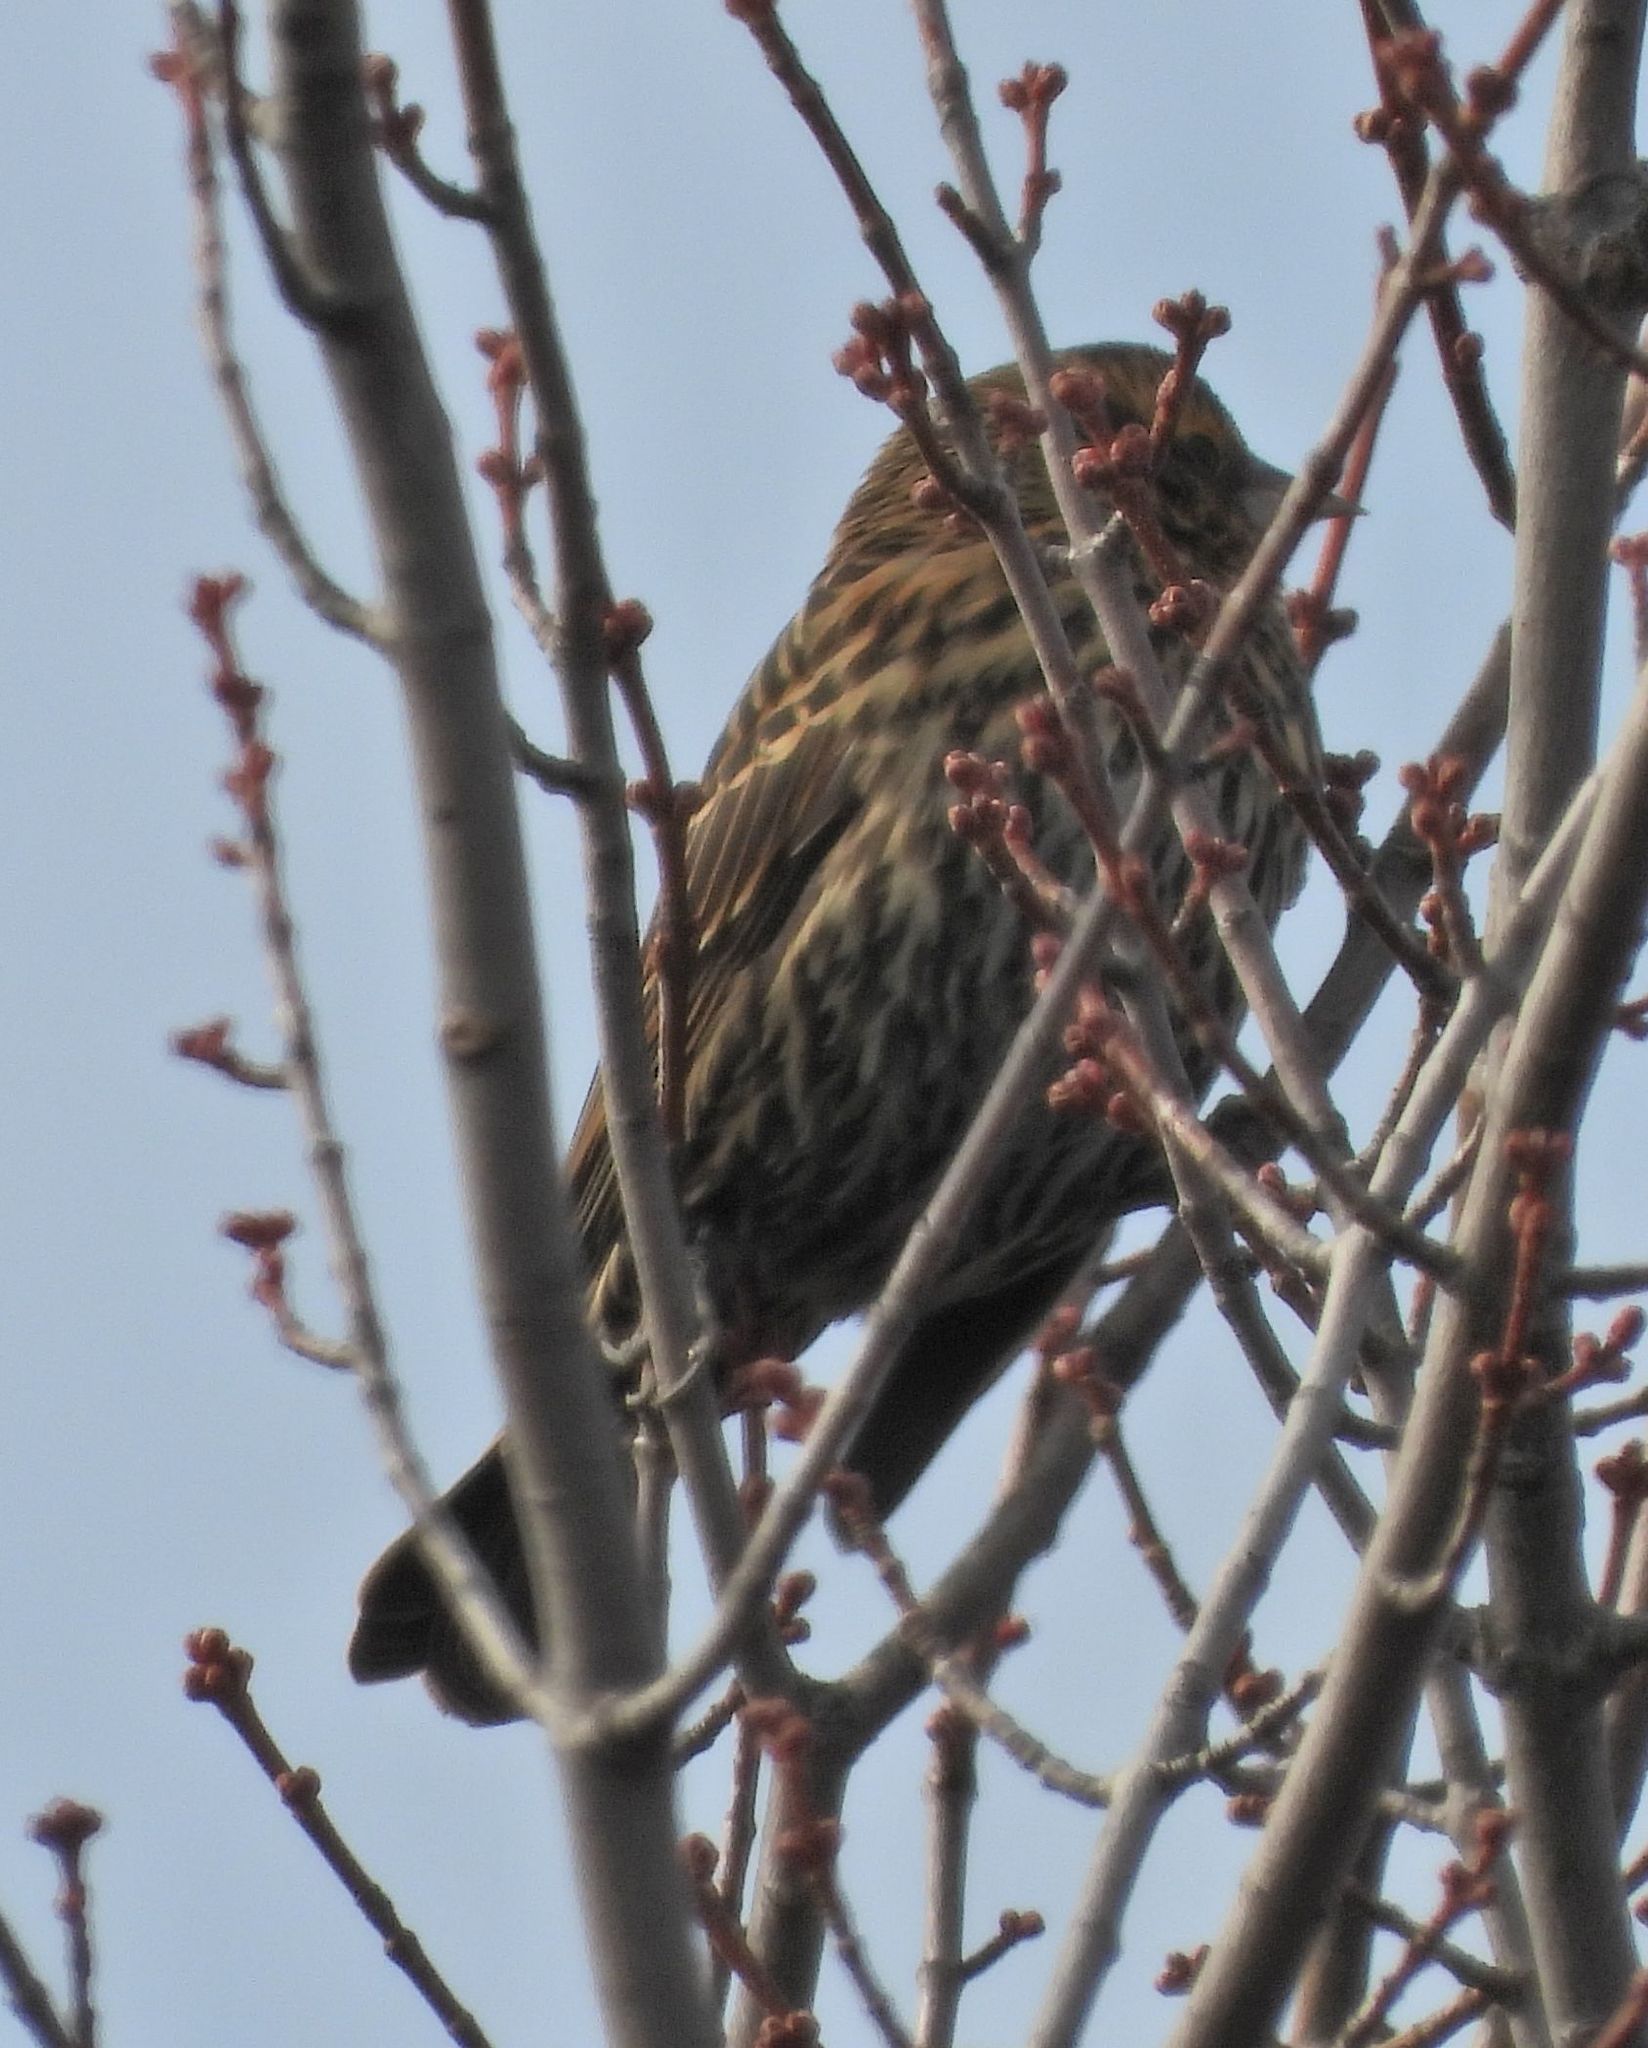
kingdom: Animalia
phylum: Chordata
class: Aves
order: Passeriformes
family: Icteridae
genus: Agelaius
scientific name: Agelaius phoeniceus
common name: Red-winged blackbird
